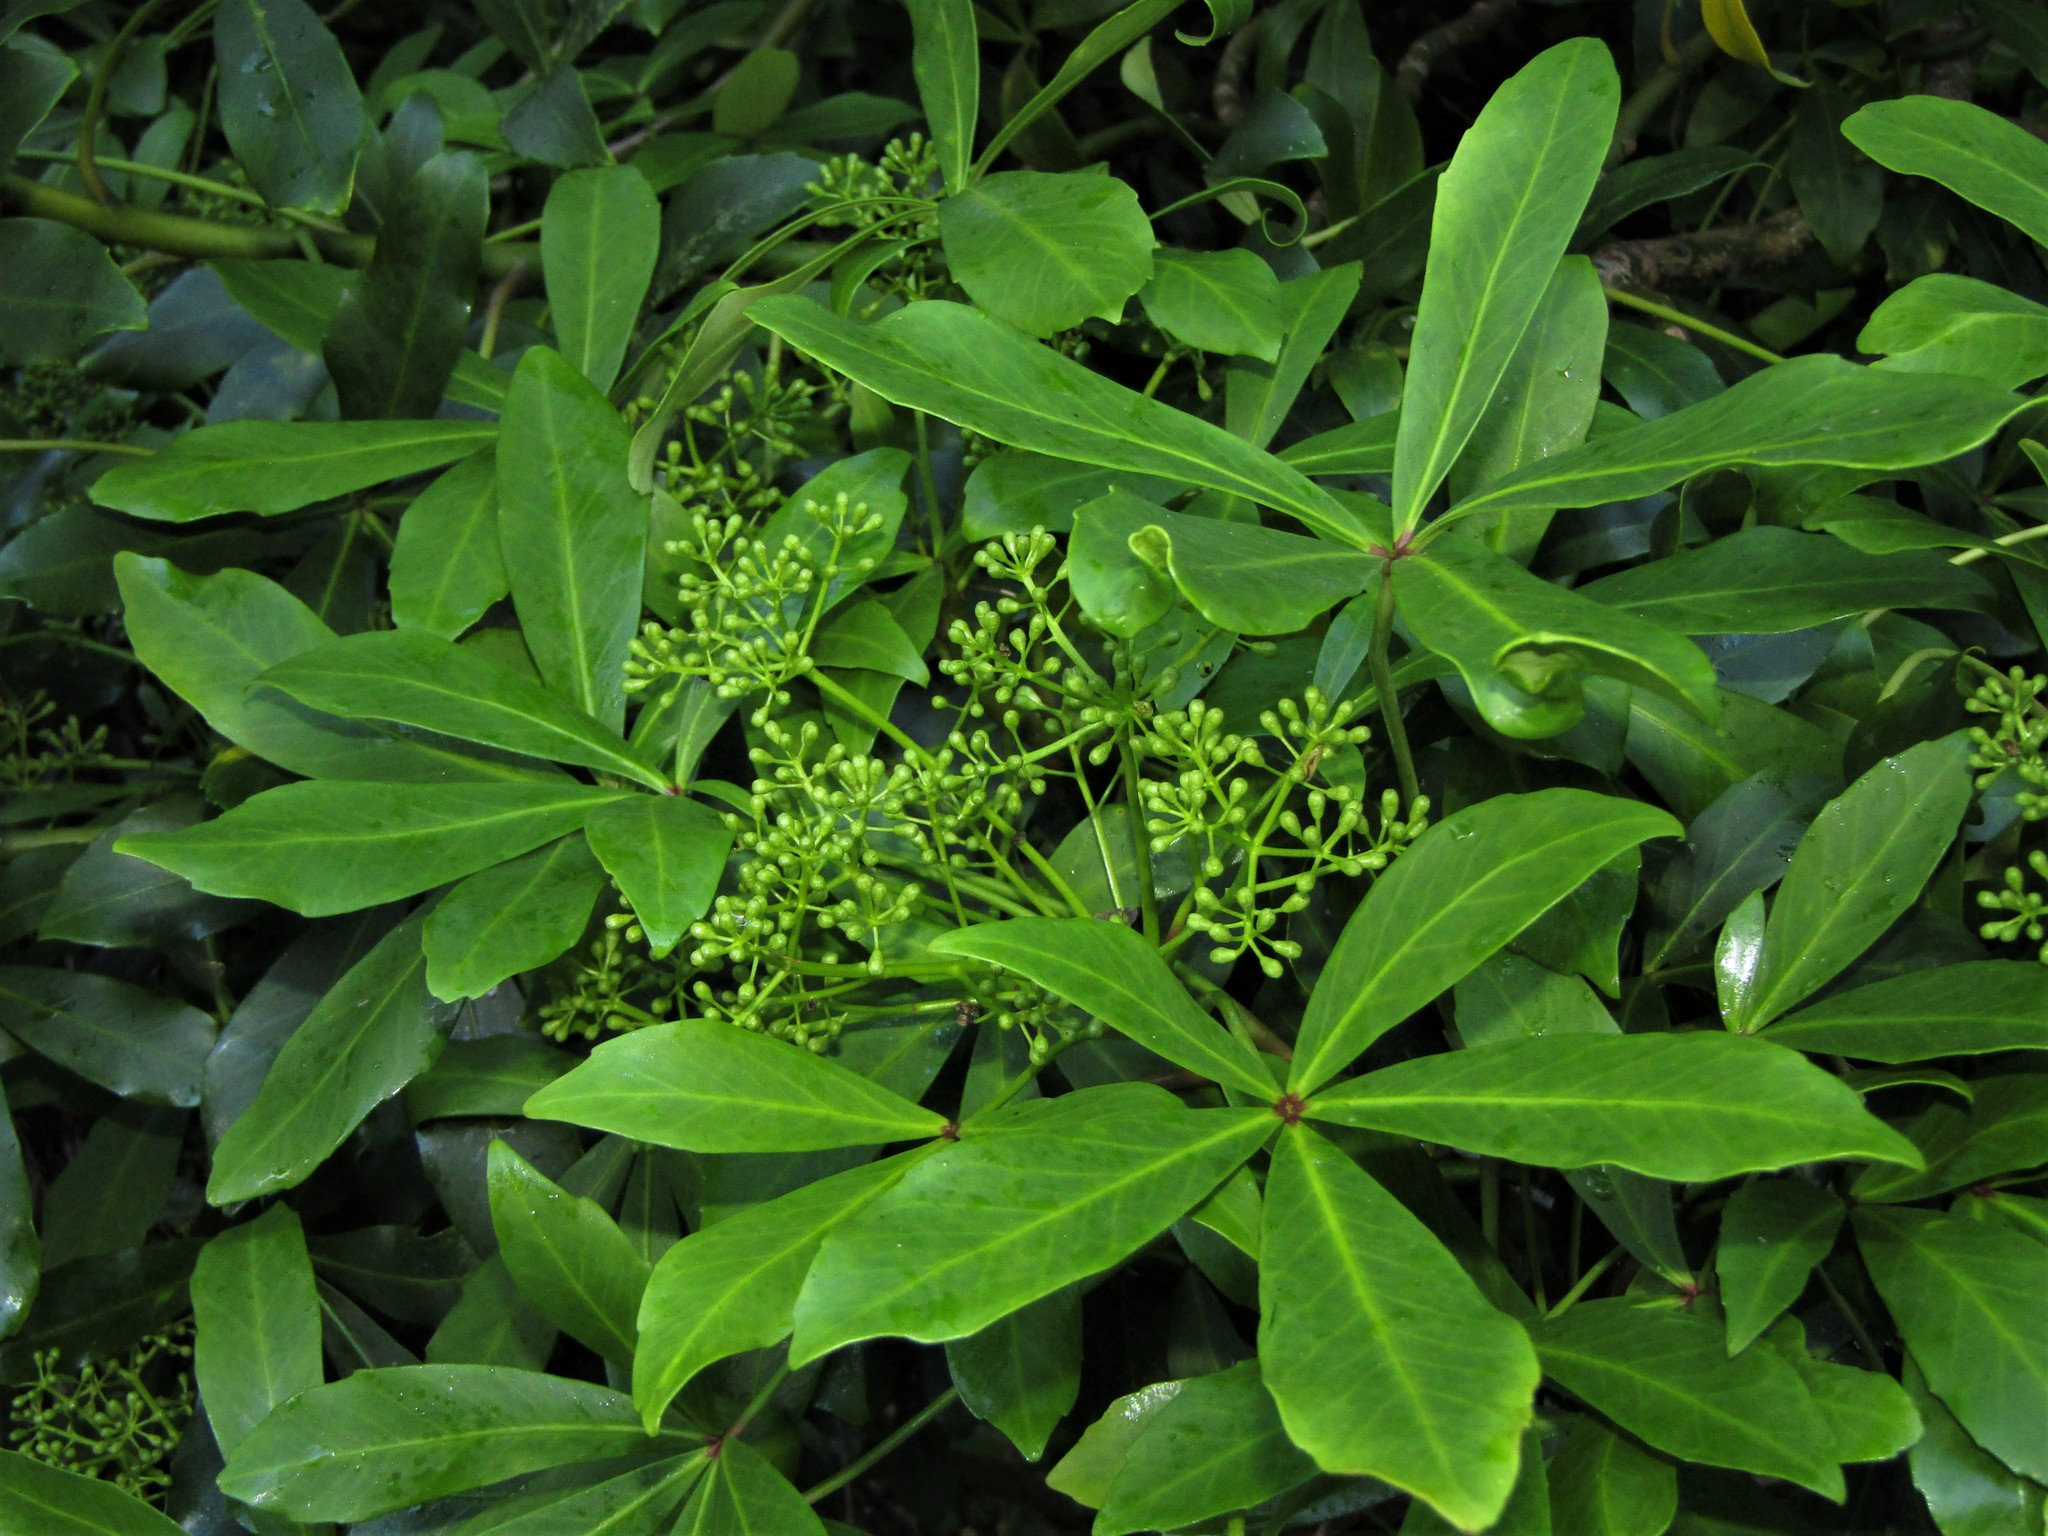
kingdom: Plantae
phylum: Tracheophyta
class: Magnoliopsida
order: Apiales
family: Araliaceae
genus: Pseudopanax
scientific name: Pseudopanax lessonii
